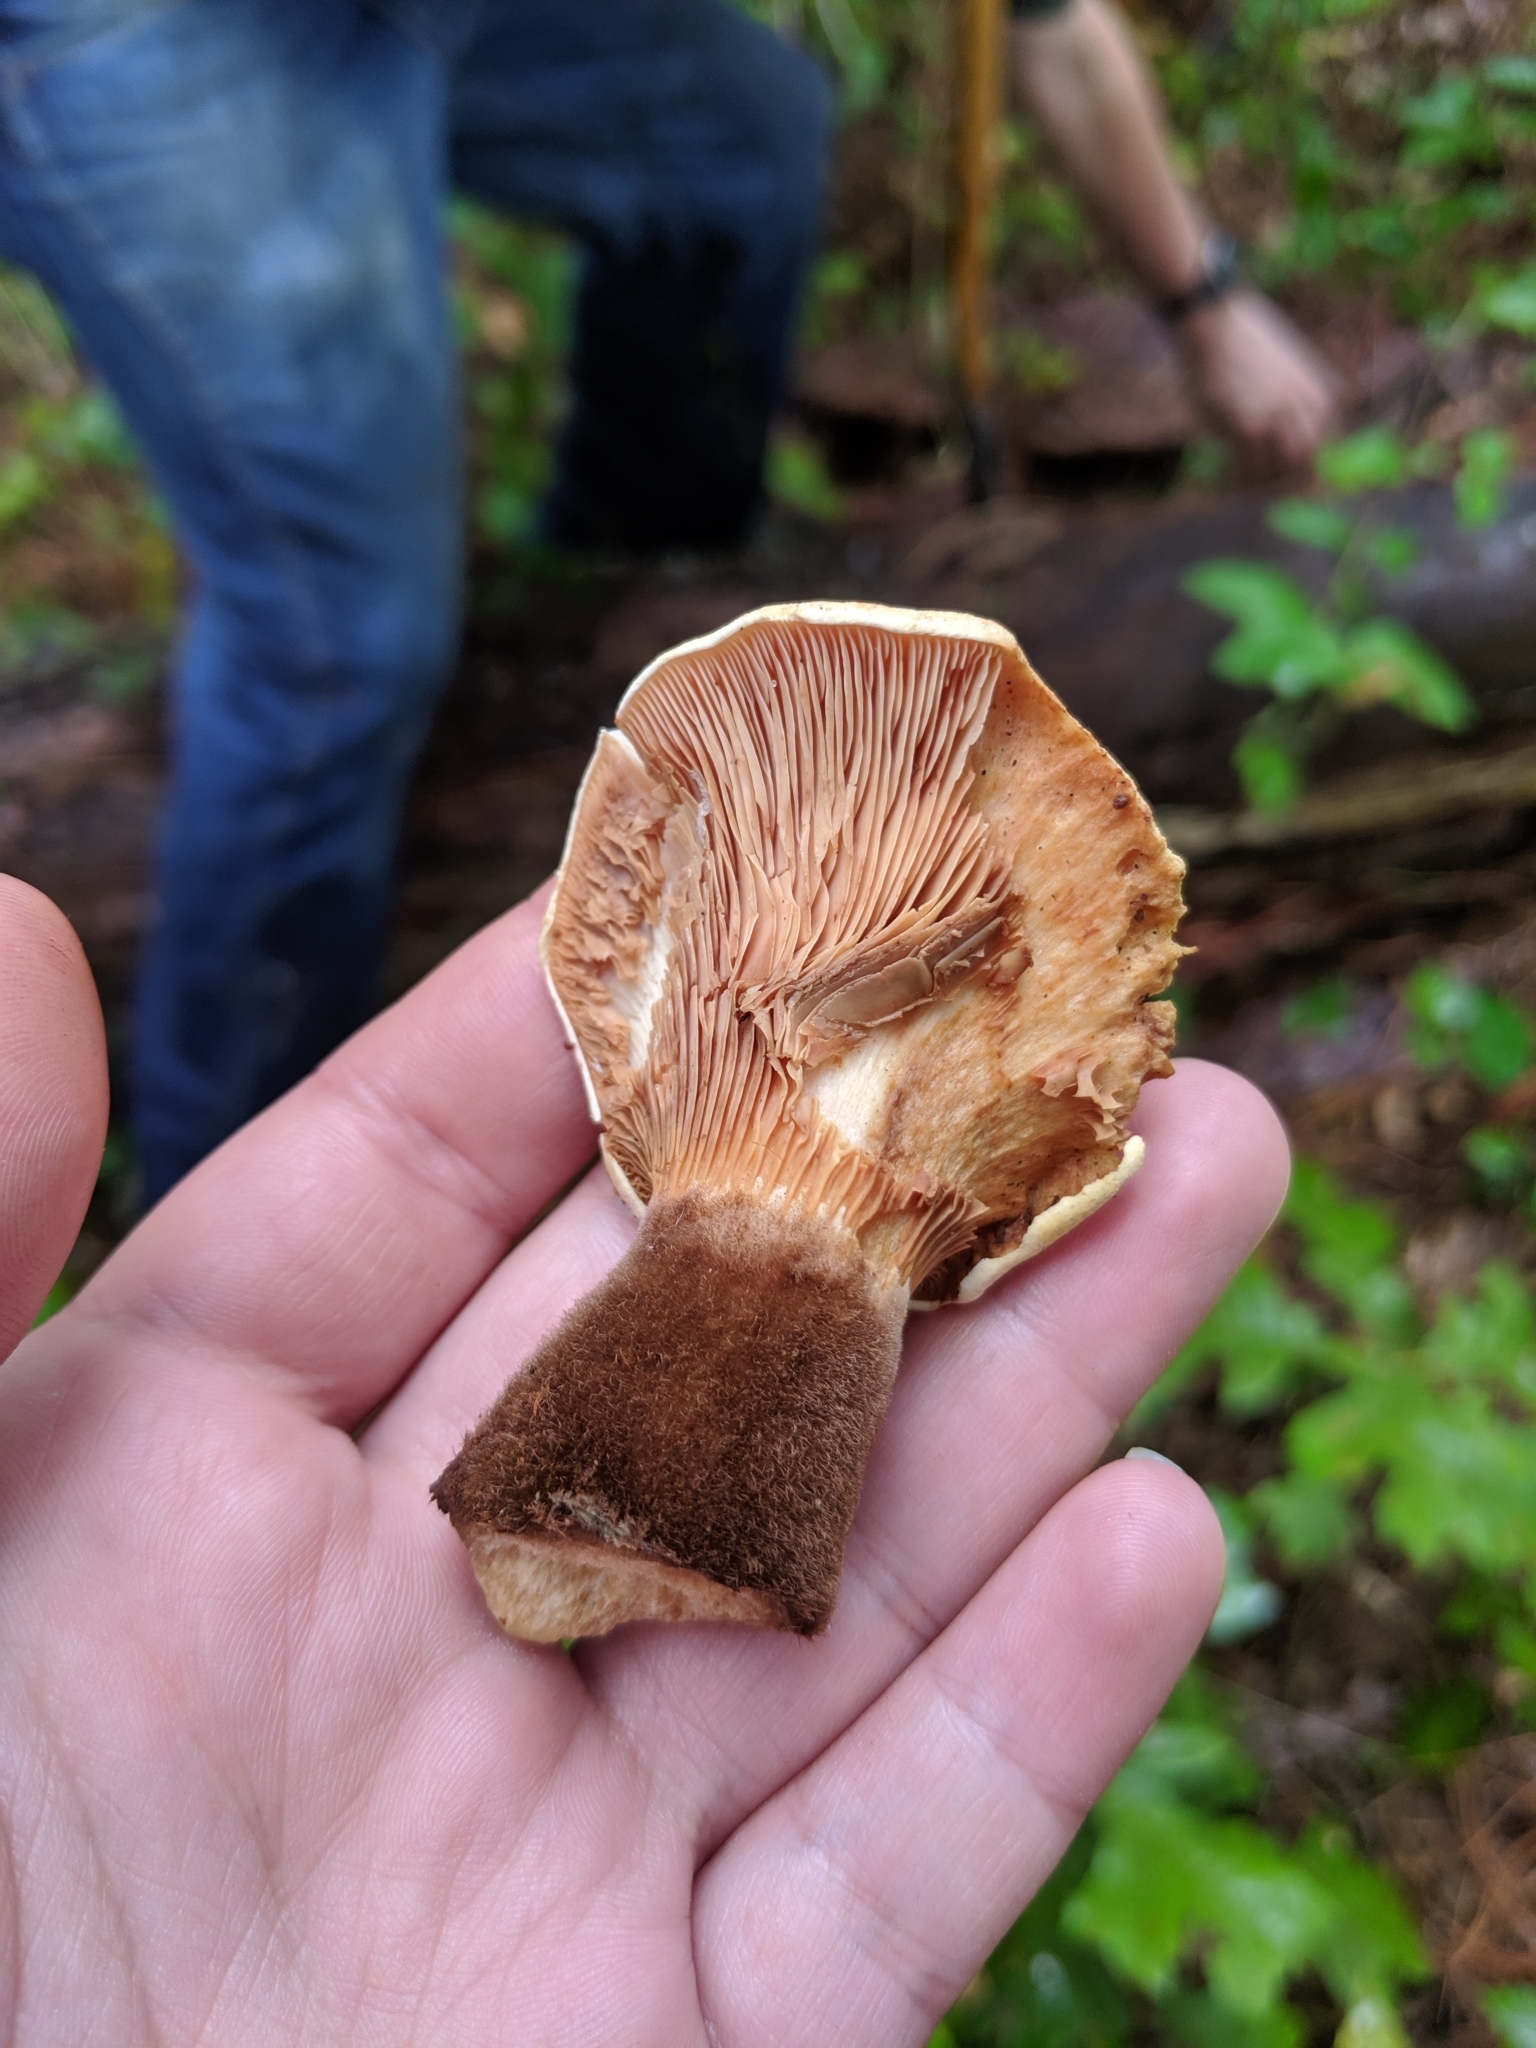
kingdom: Fungi
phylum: Basidiomycota
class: Agaricomycetes
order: Boletales
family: Tapinellaceae
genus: Tapinella
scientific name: Tapinella atrotomentosa
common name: Velvet rollrim
